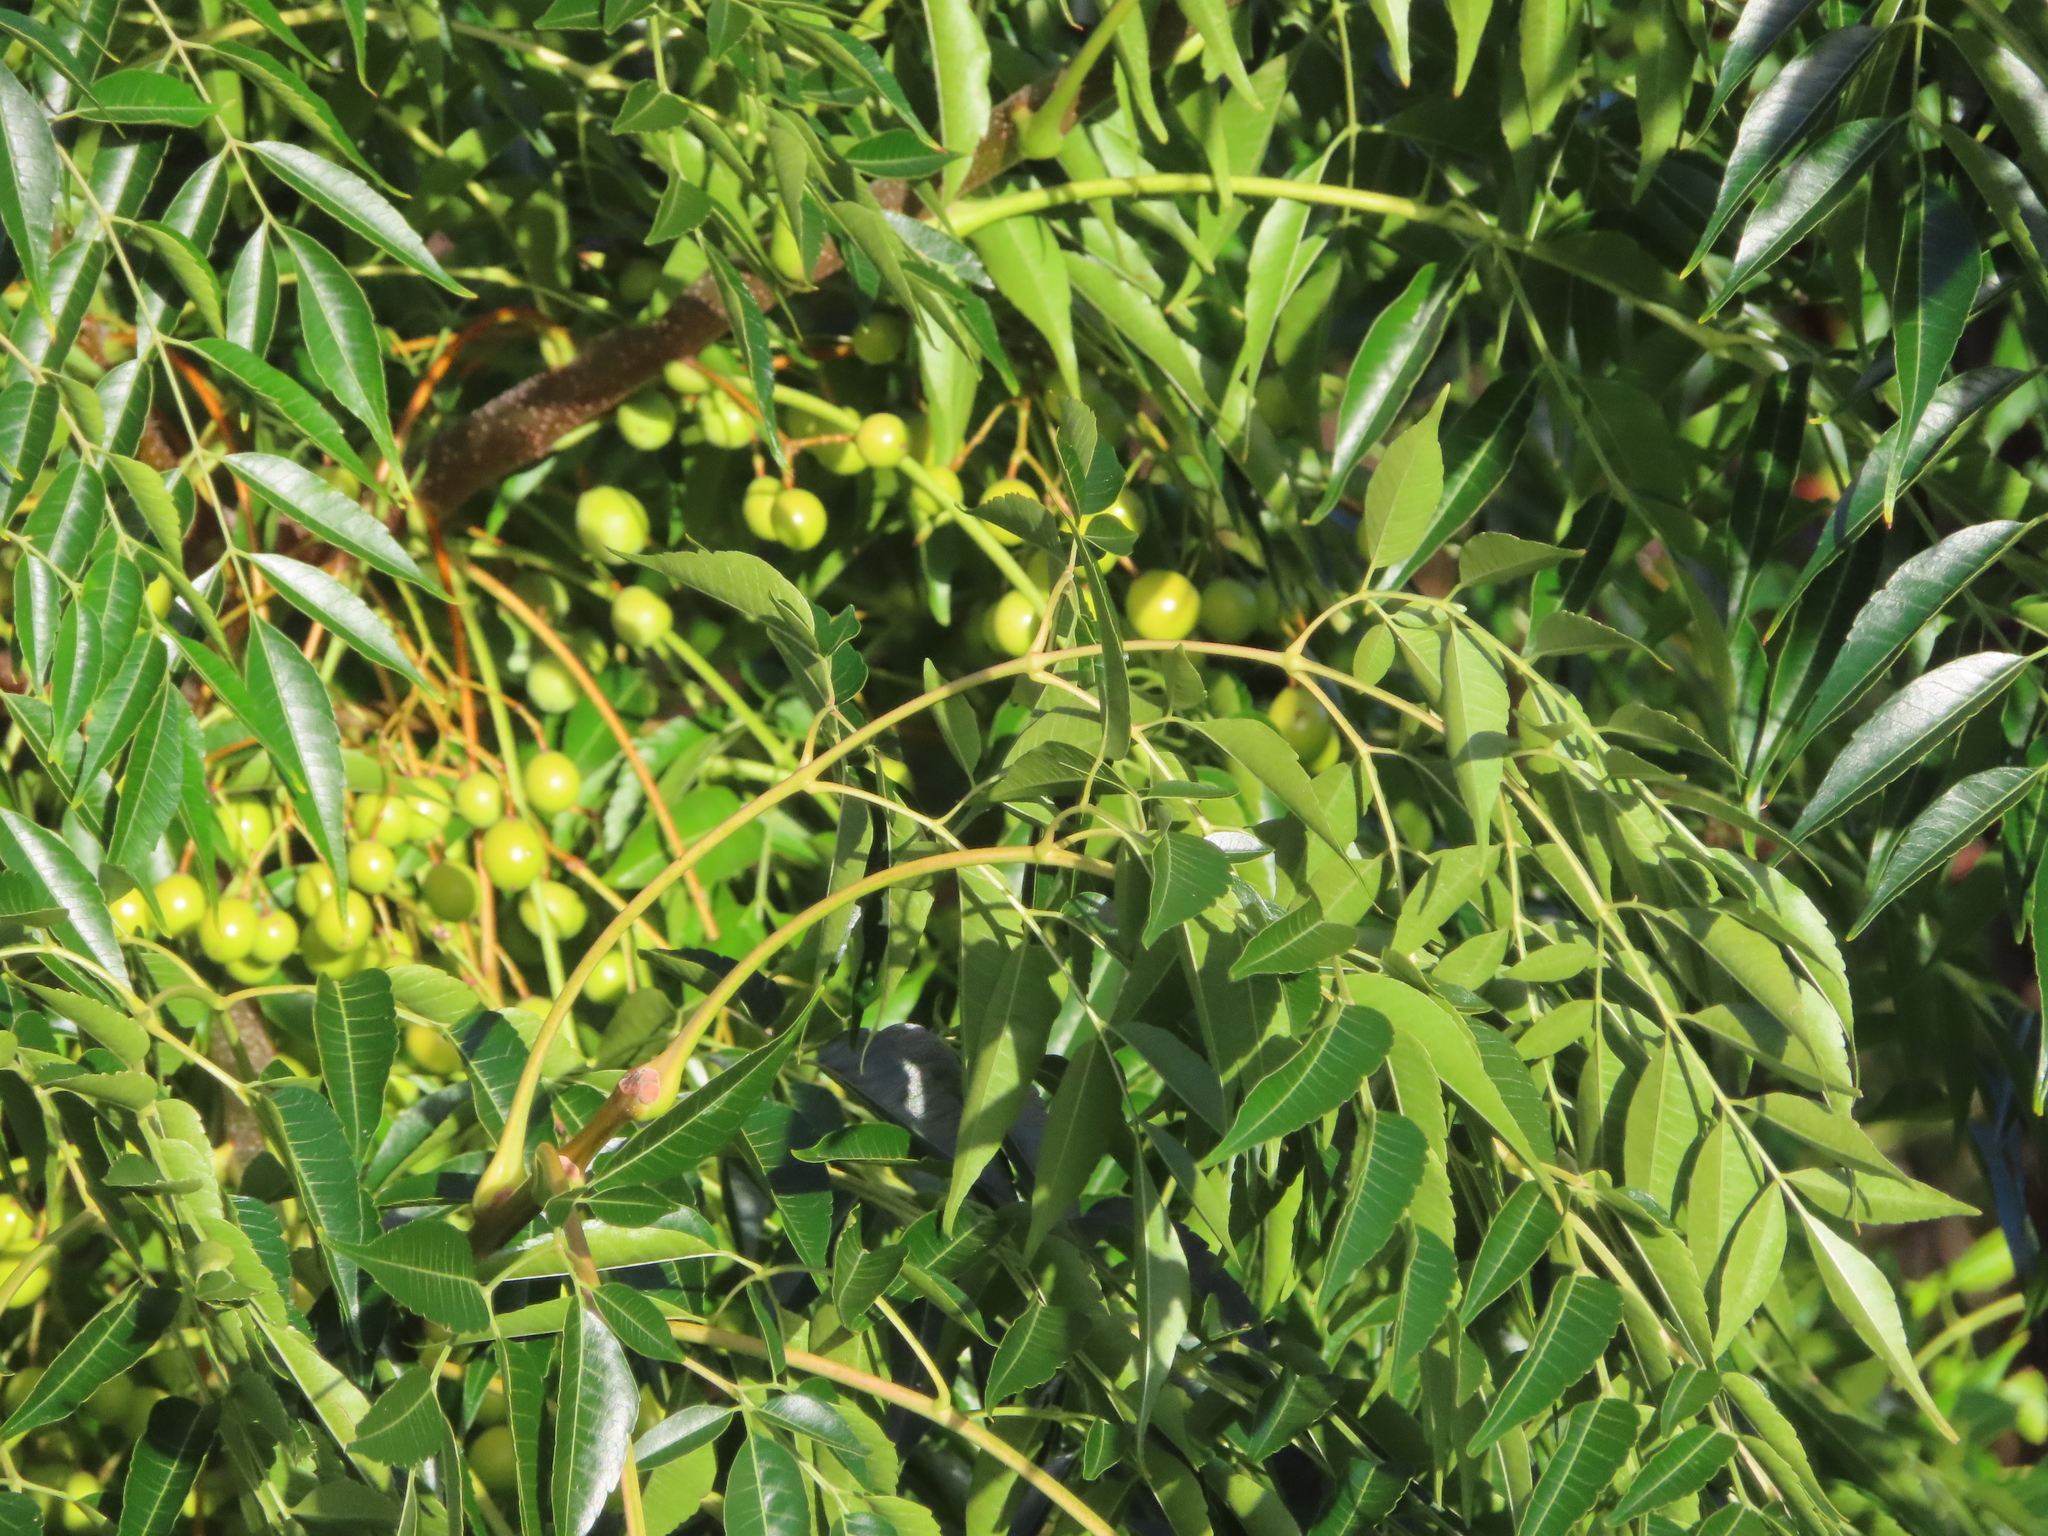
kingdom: Plantae
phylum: Tracheophyta
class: Magnoliopsida
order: Sapindales
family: Meliaceae
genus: Melia
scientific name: Melia azedarach
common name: Chinaberrytree
